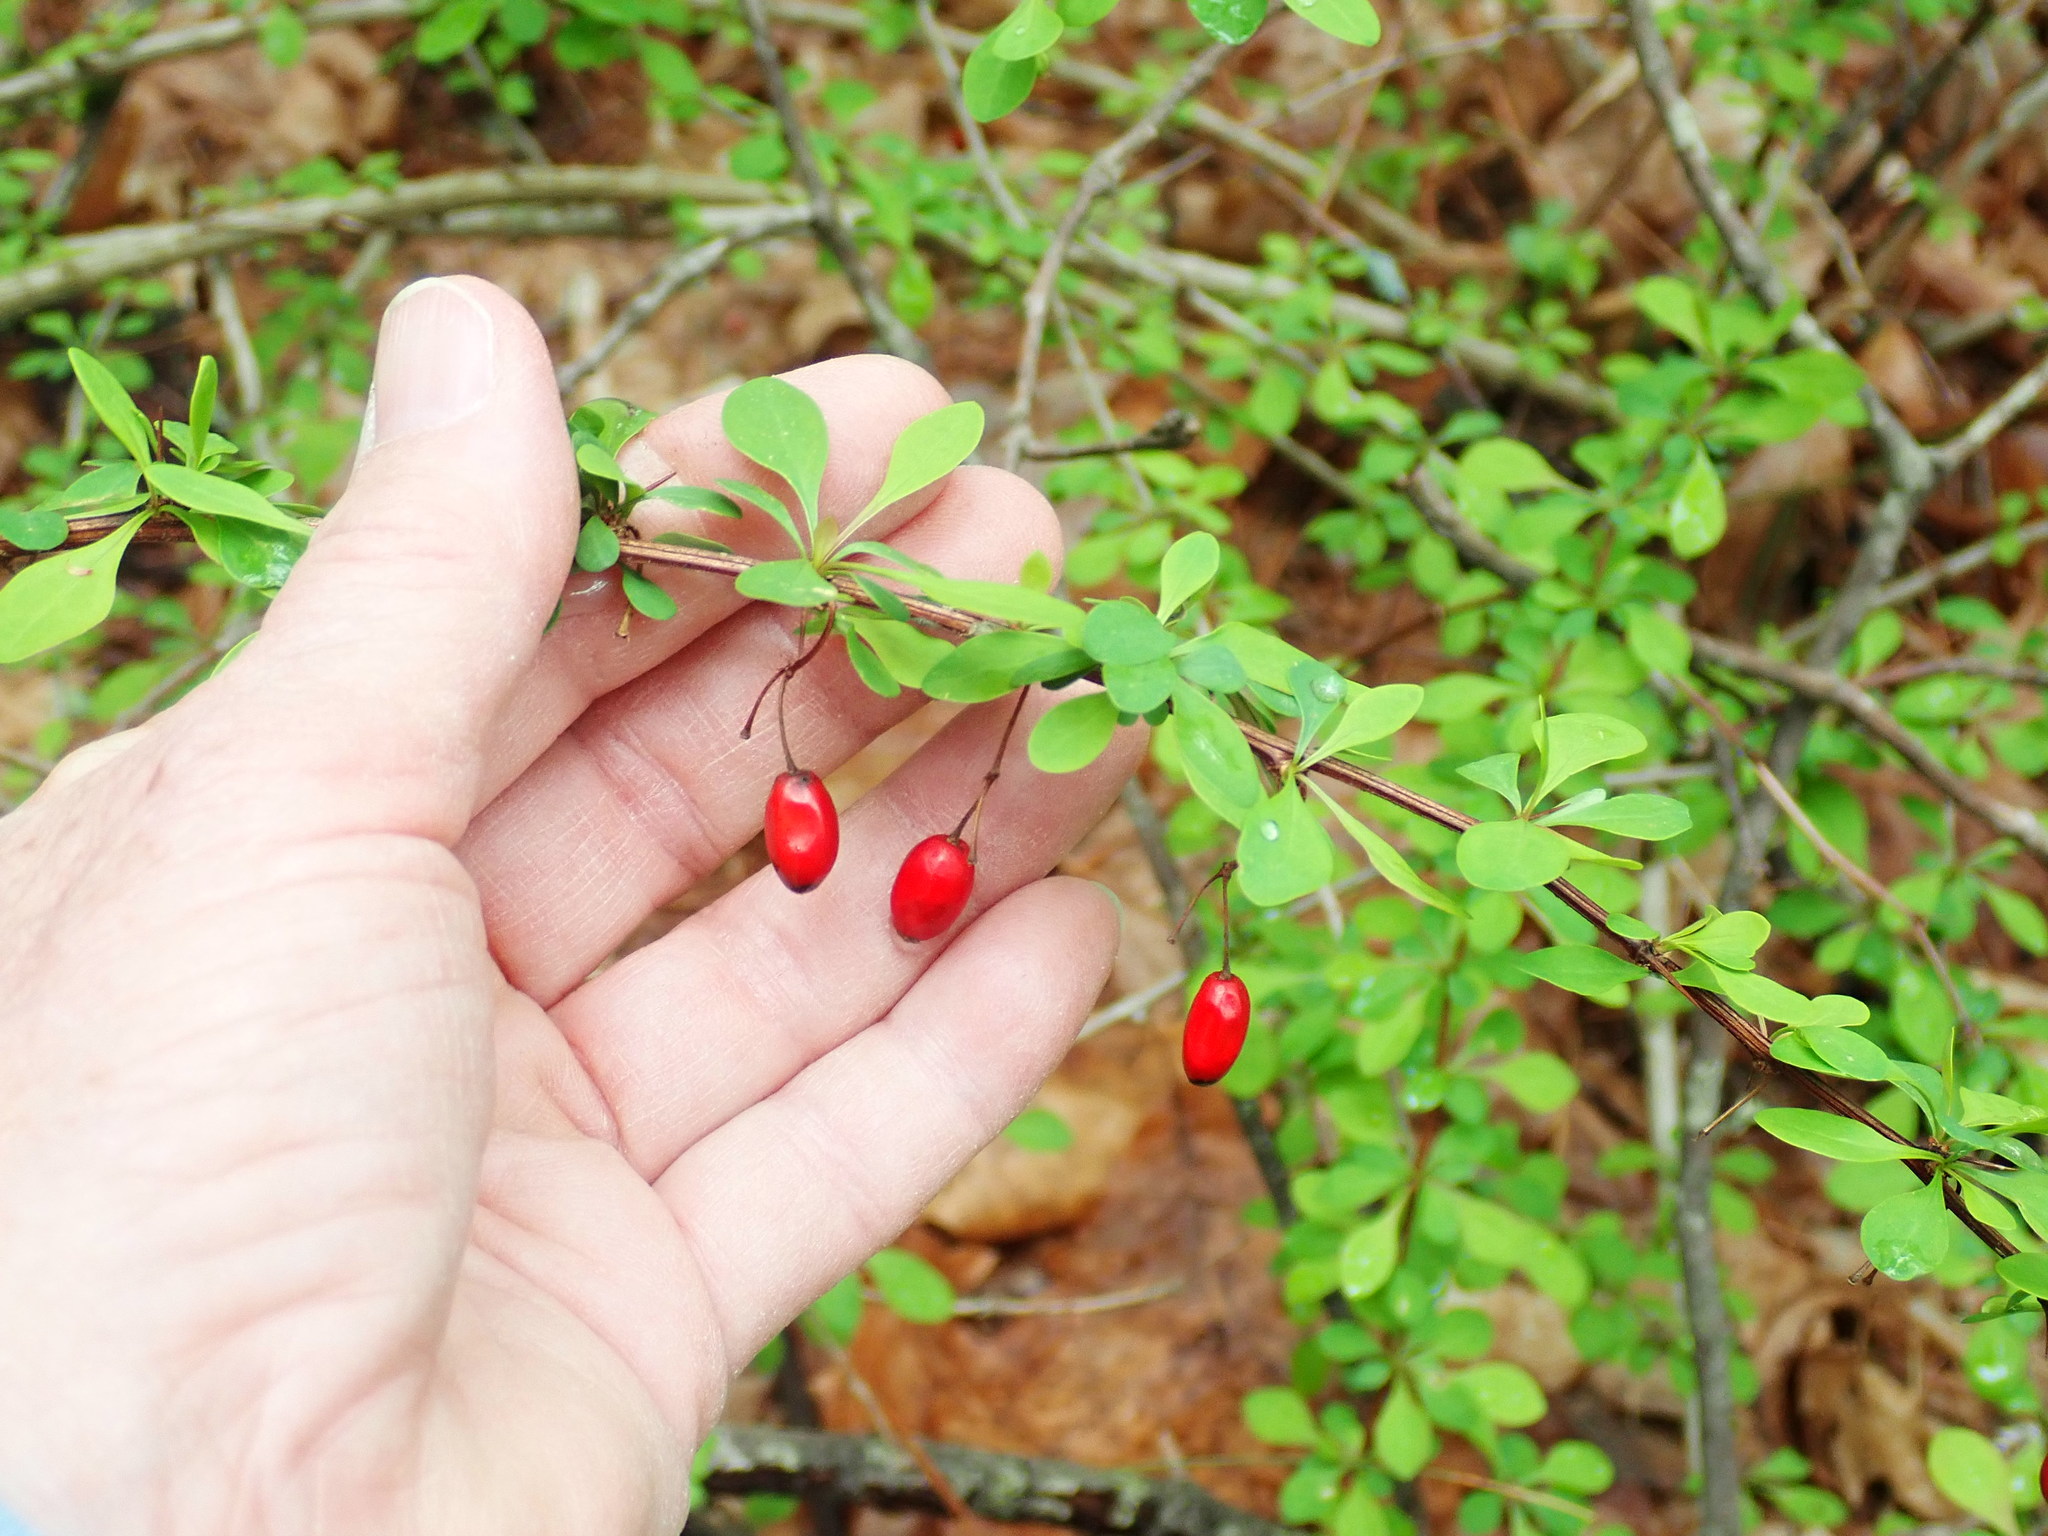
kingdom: Plantae
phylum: Tracheophyta
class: Magnoliopsida
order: Ranunculales
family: Berberidaceae
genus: Berberis
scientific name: Berberis thunbergii
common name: Japanese barberry
